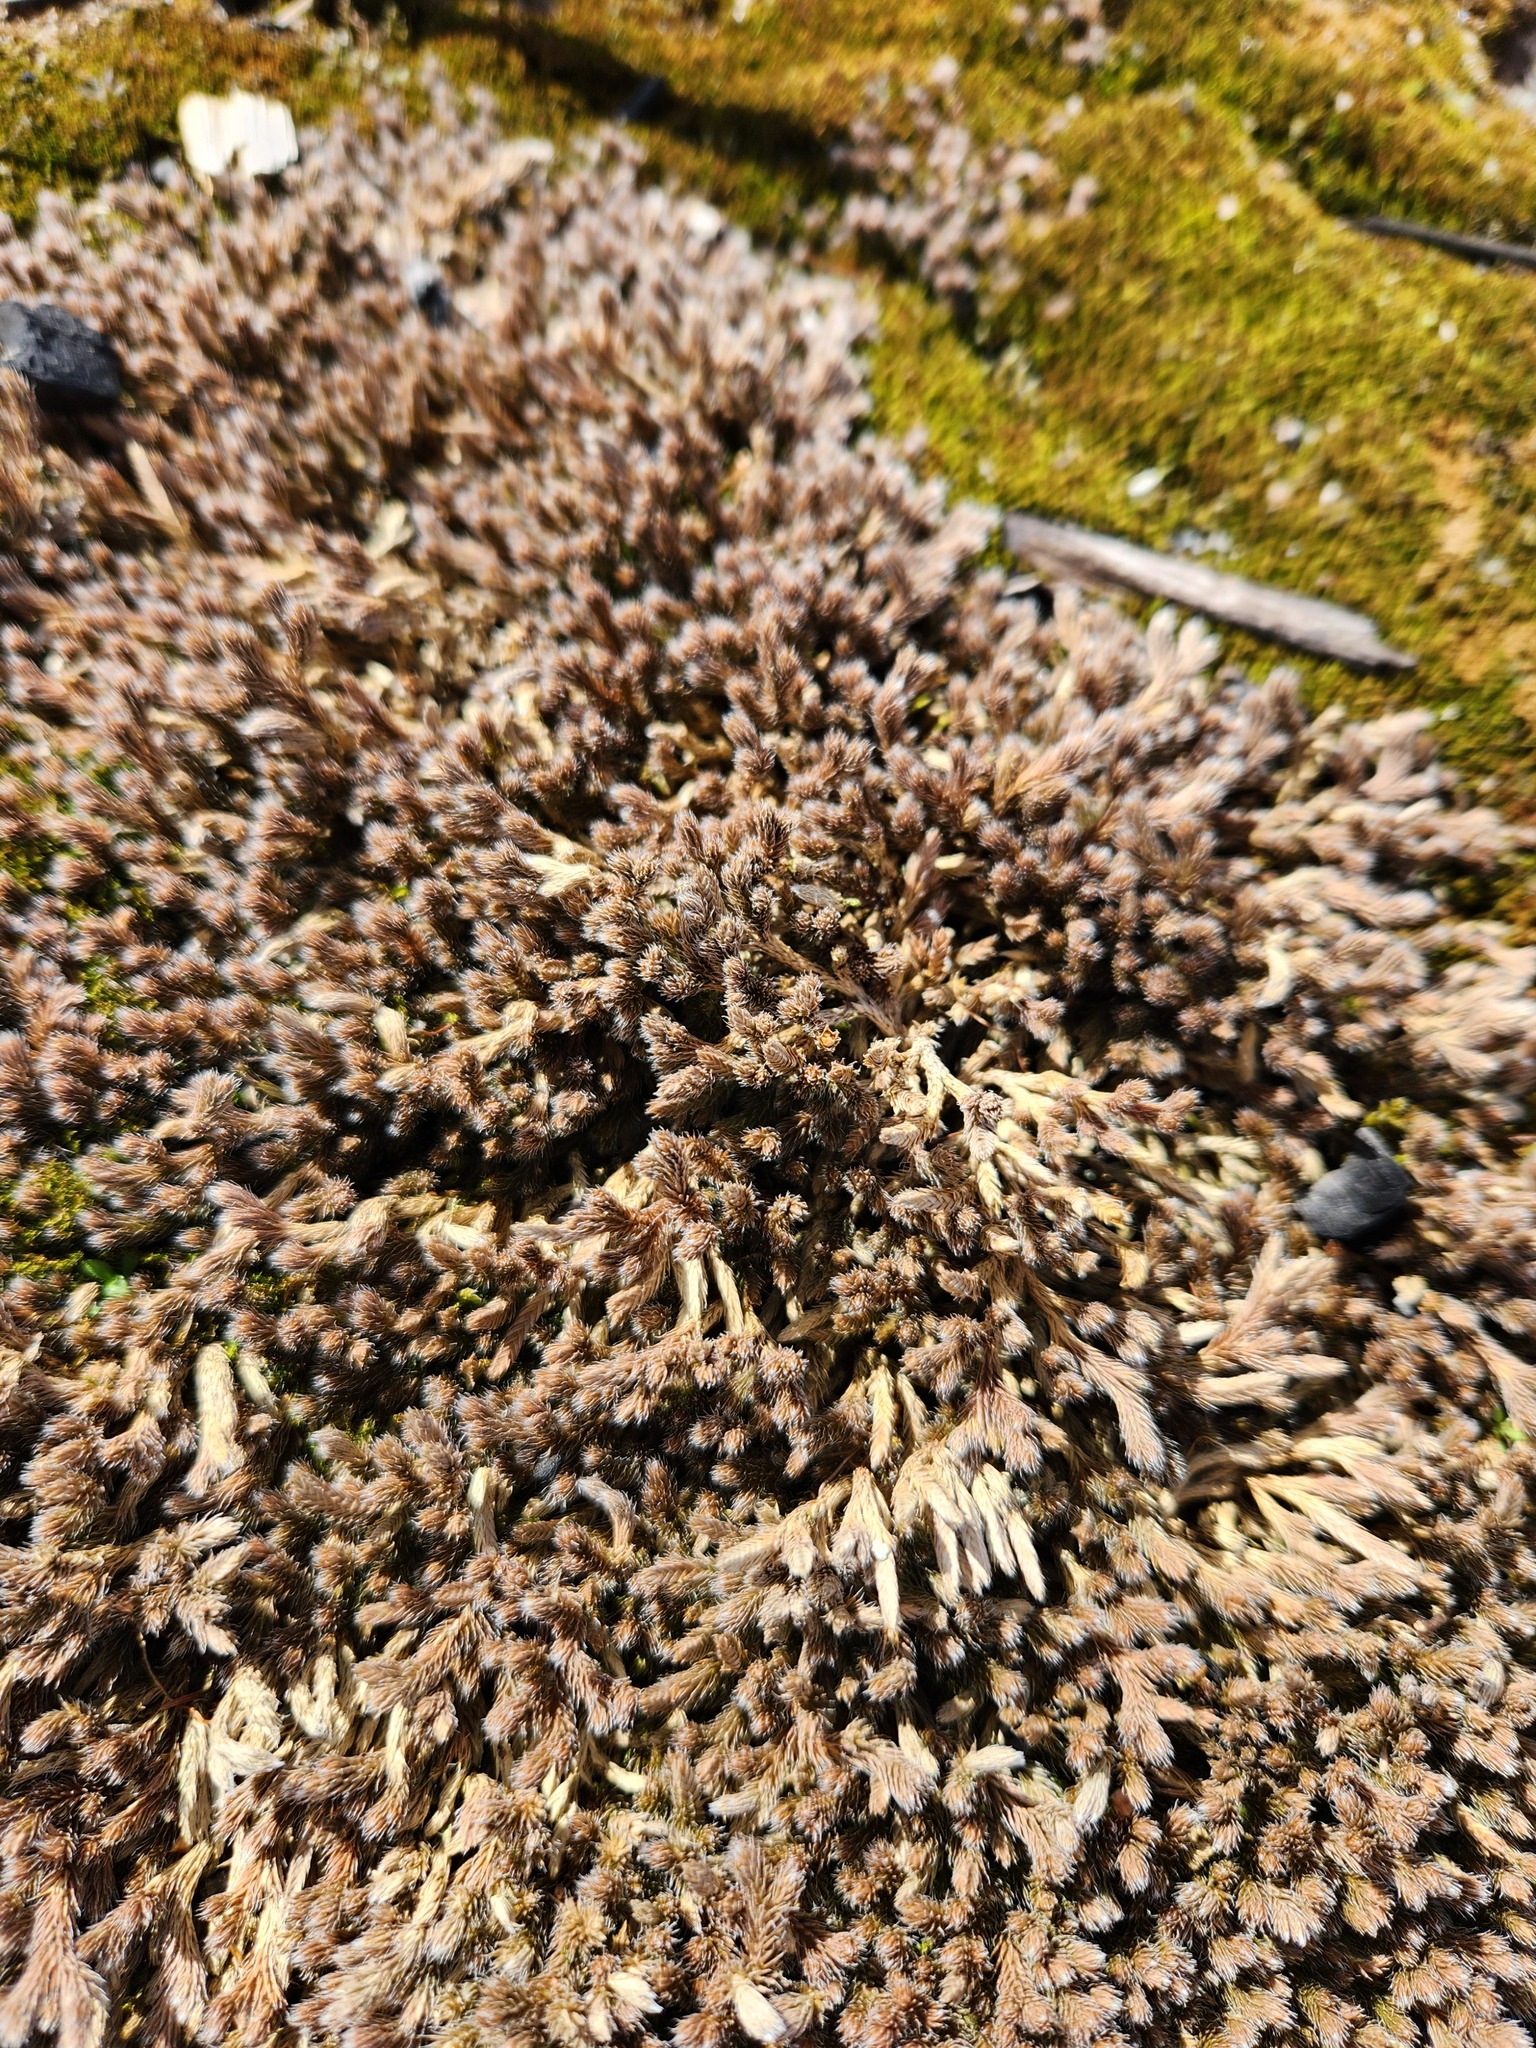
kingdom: Plantae
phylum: Tracheophyta
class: Lycopodiopsida
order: Selaginellales
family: Selaginellaceae
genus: Selaginella
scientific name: Selaginella rupestris
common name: Dwarf spikemoss
